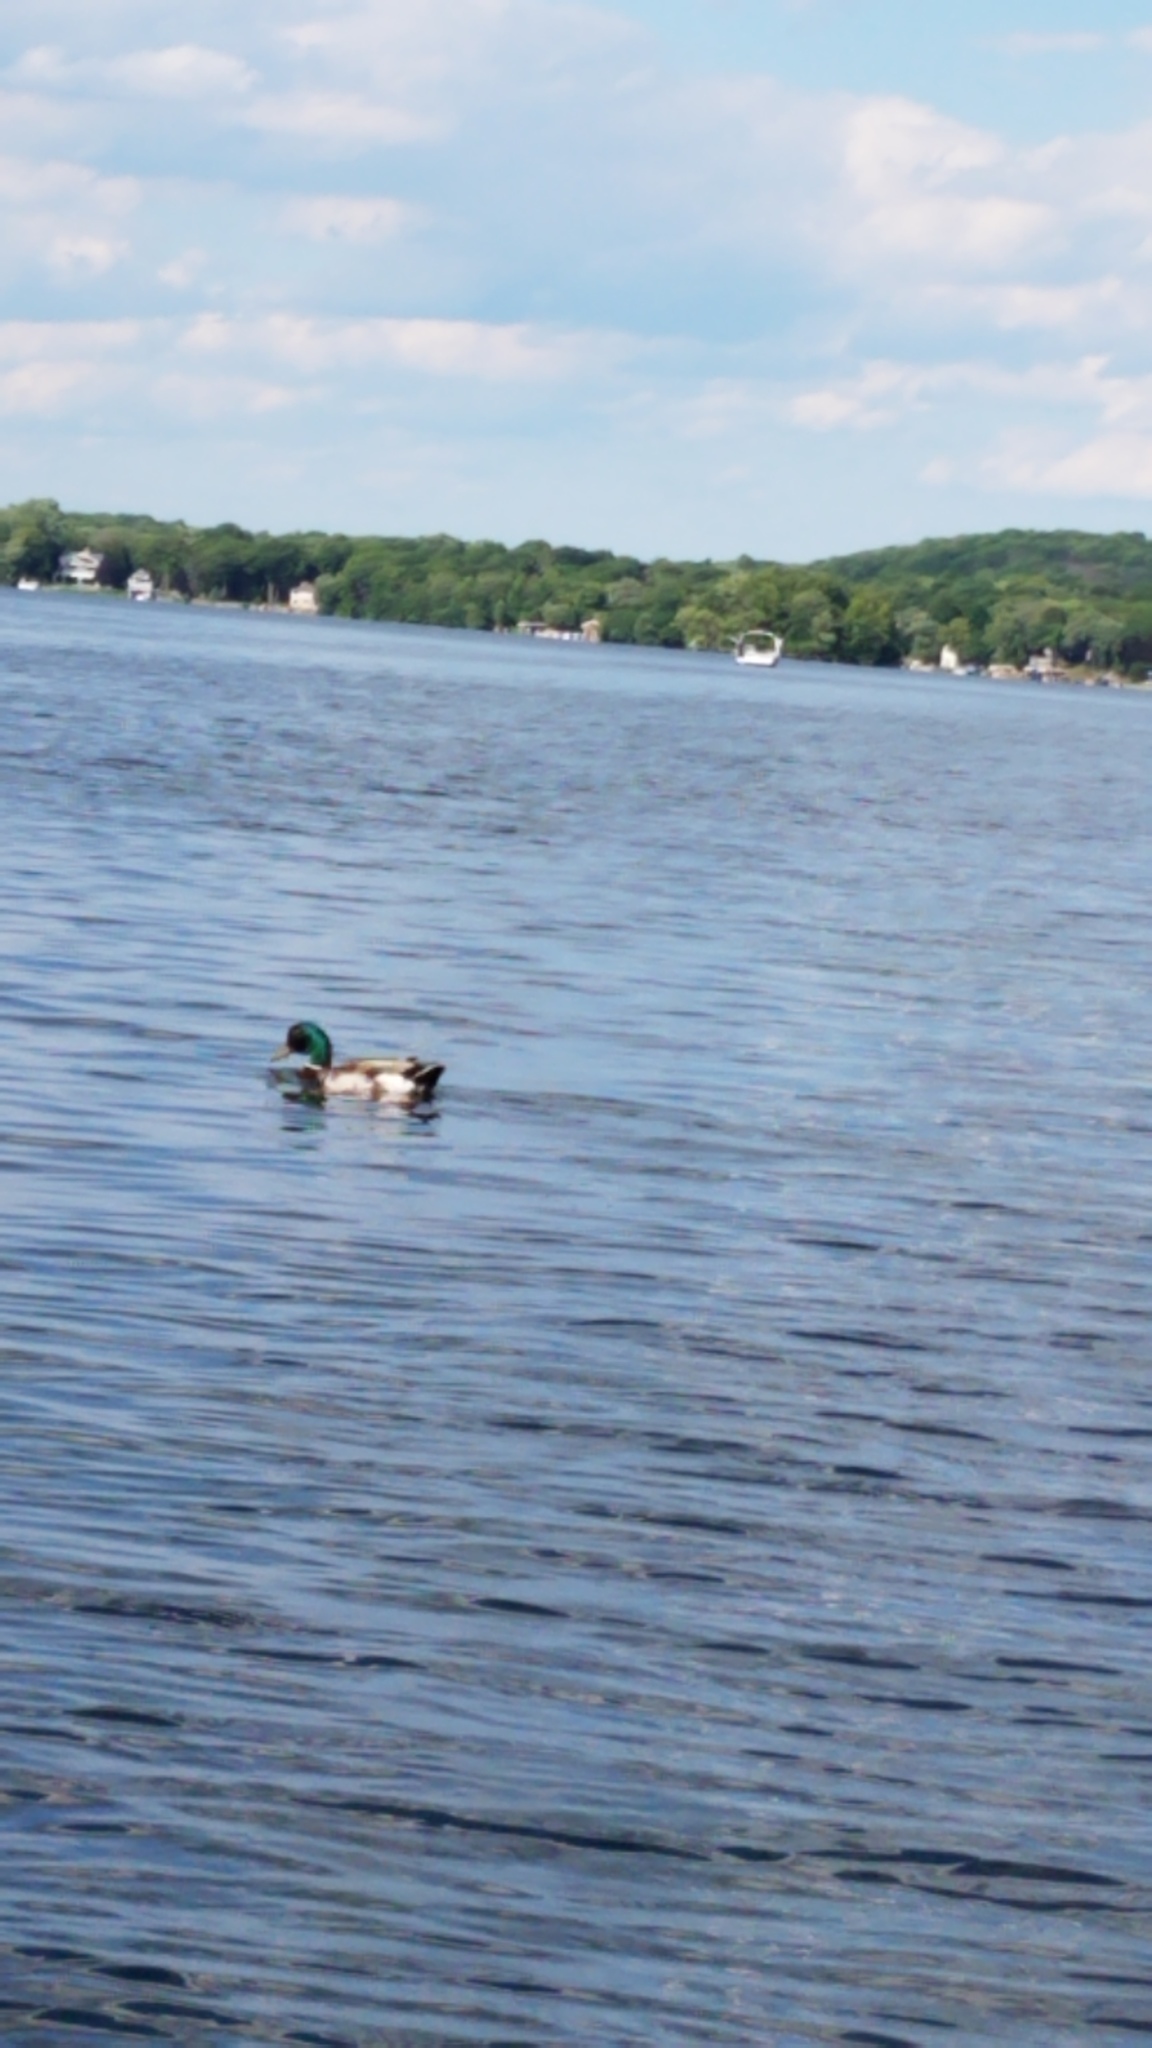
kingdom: Animalia
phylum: Chordata
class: Aves
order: Anseriformes
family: Anatidae
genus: Anas
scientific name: Anas platyrhynchos
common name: Mallard
